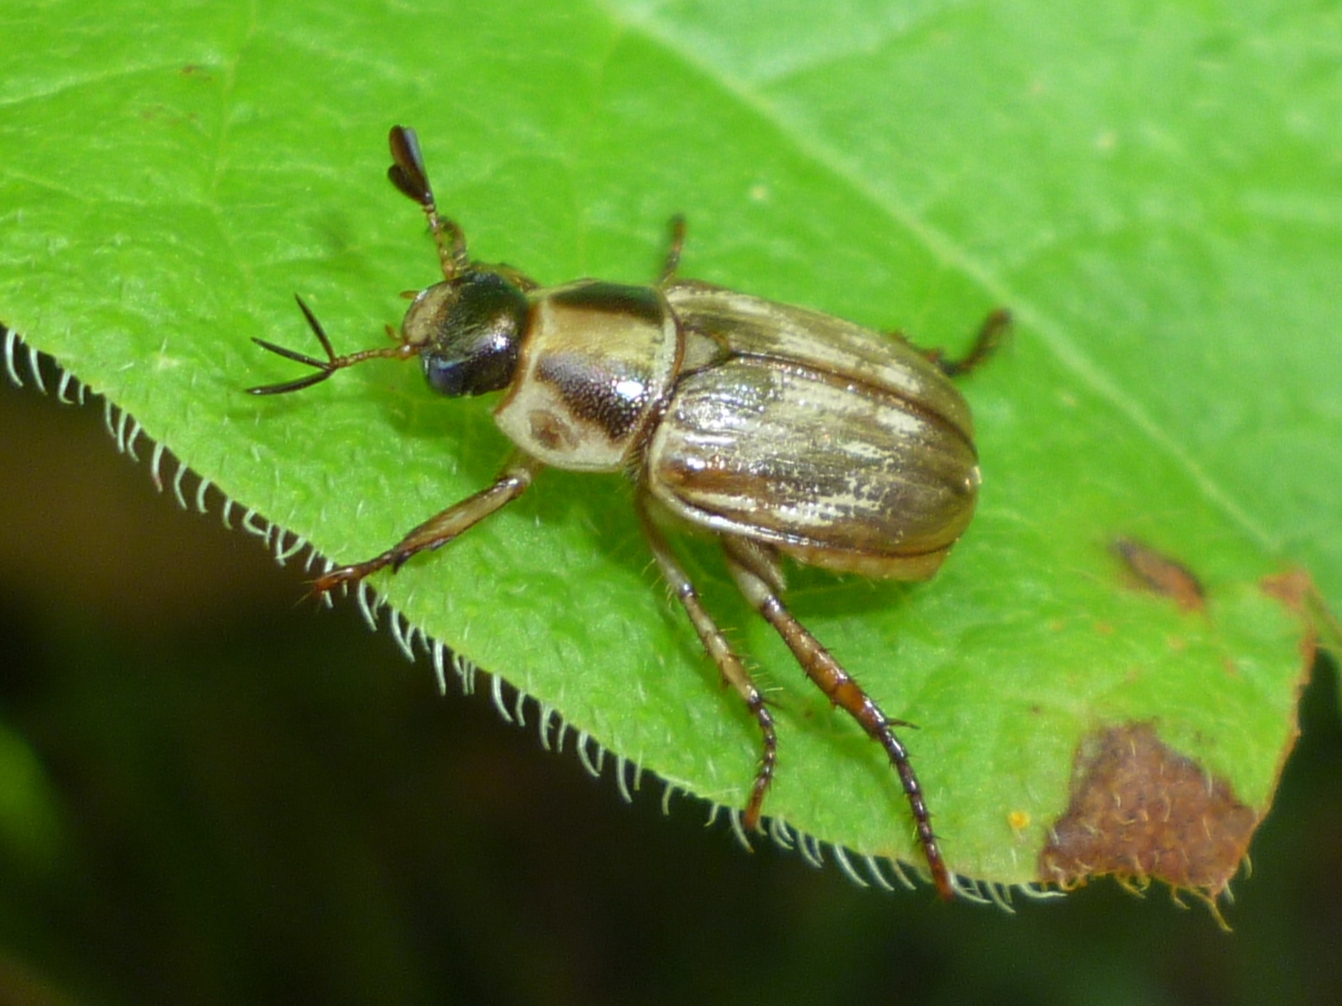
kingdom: Animalia
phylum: Arthropoda
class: Insecta
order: Coleoptera
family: Scarabaeidae
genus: Exomala
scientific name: Exomala orientalis
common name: Oriental beetle
